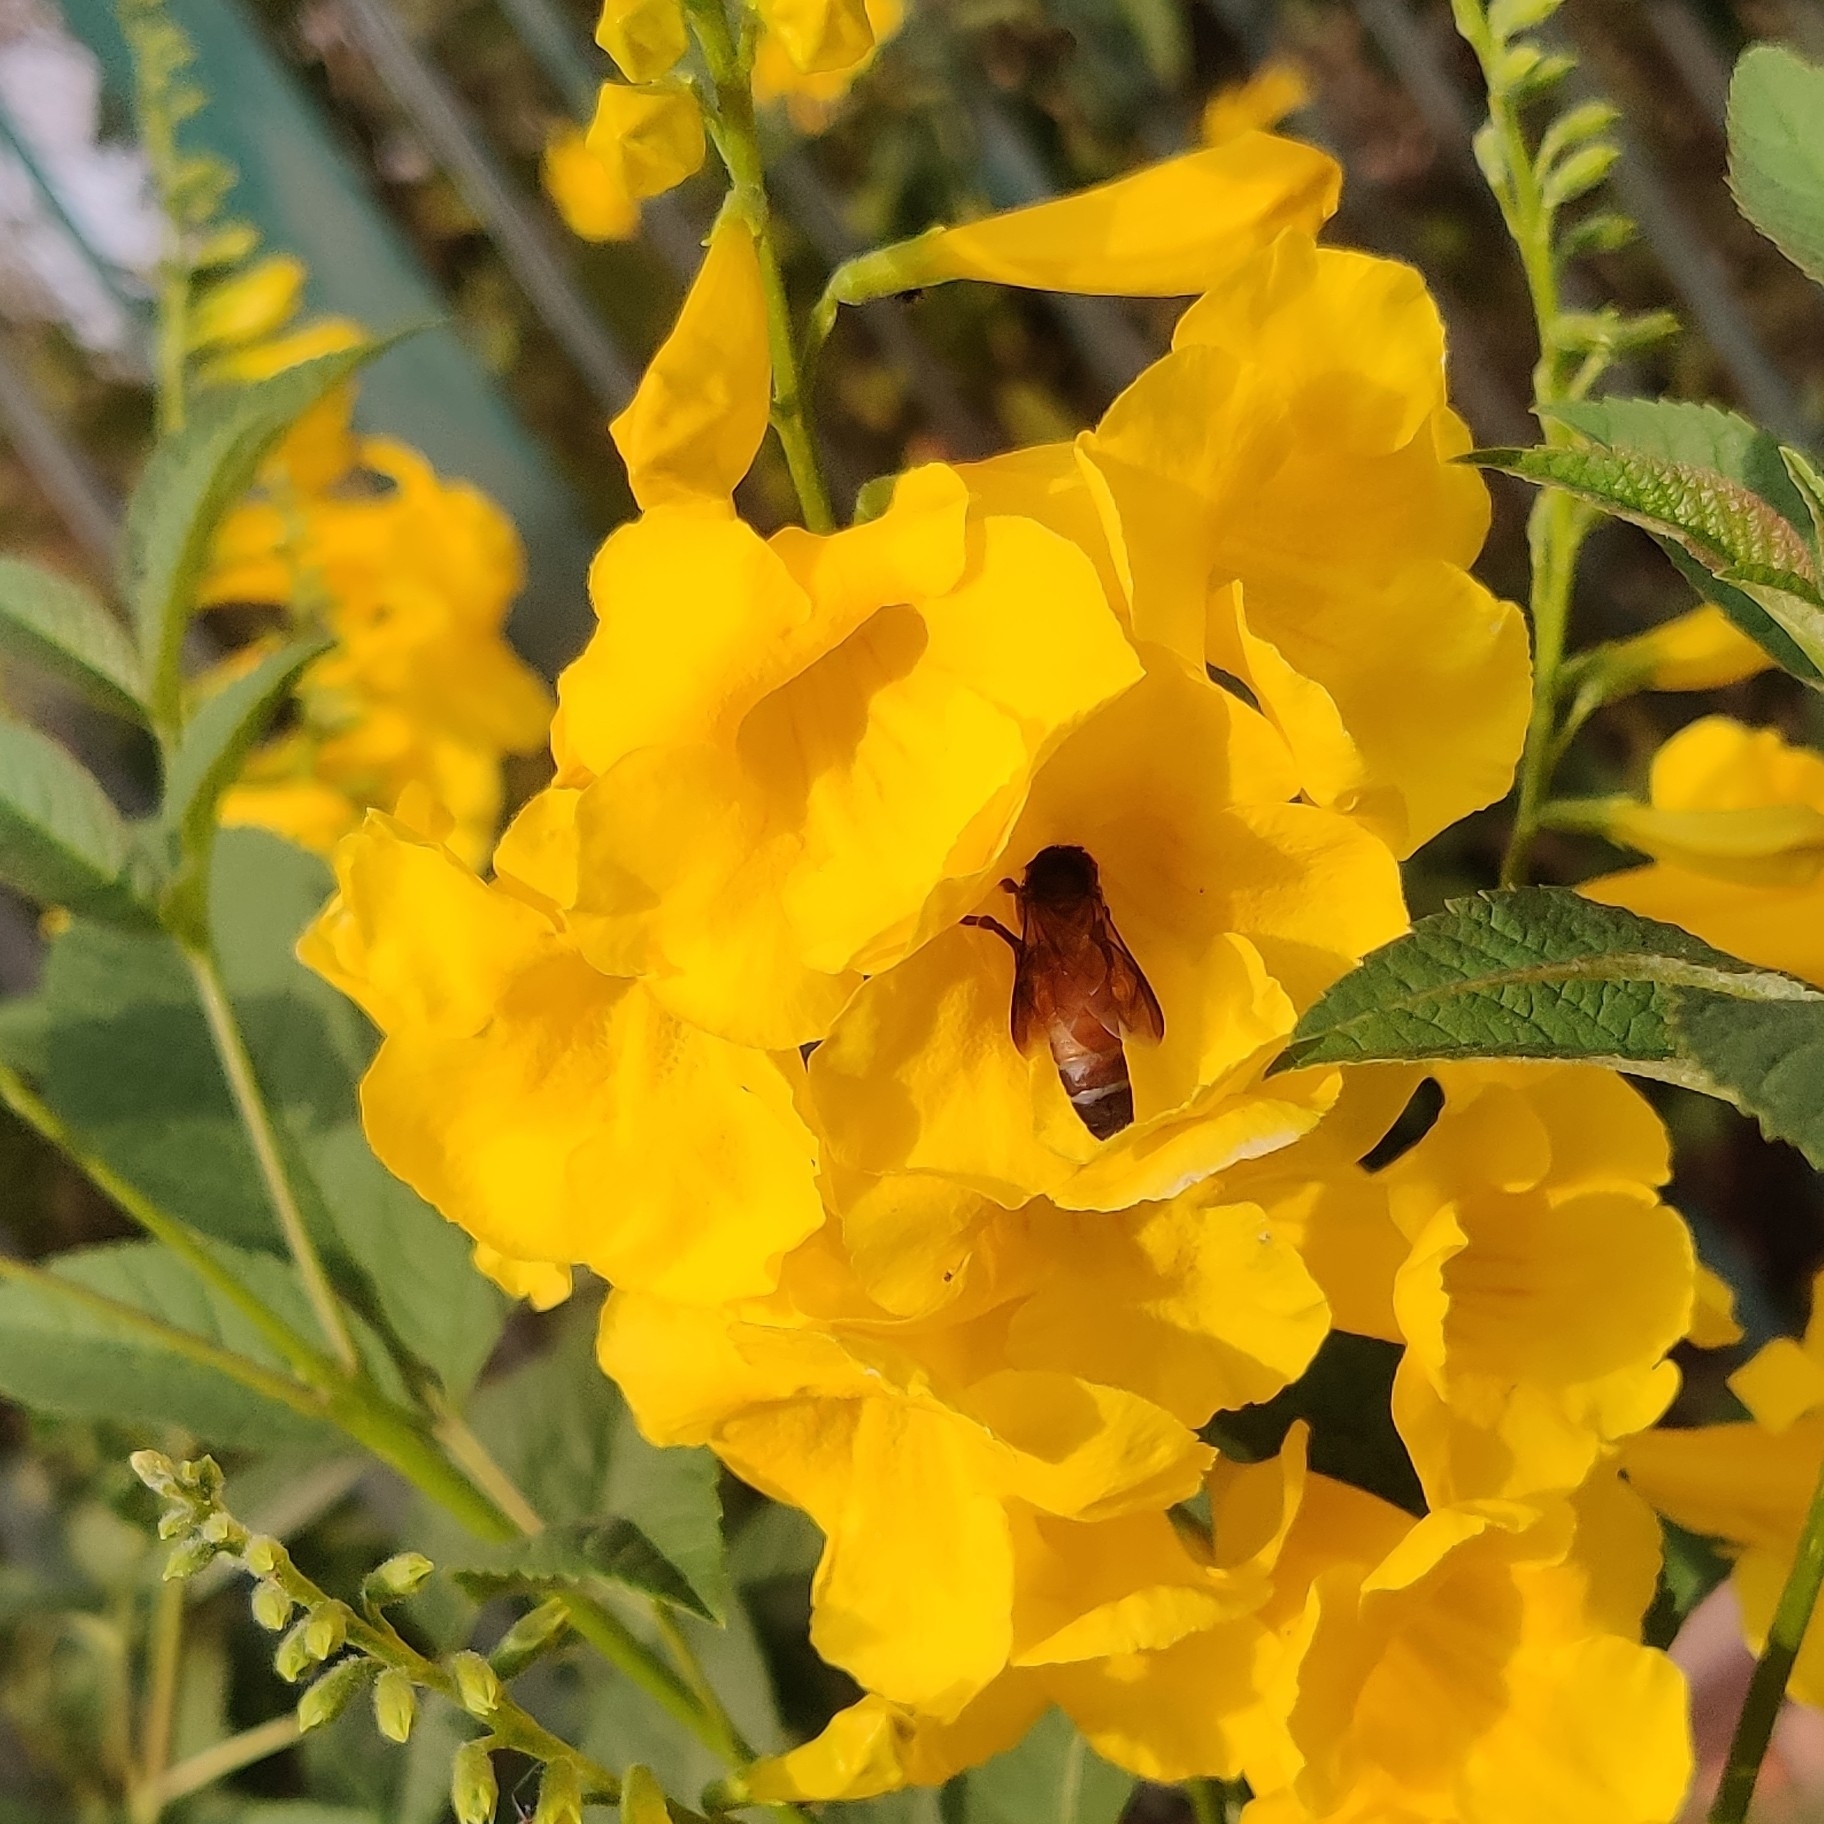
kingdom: Animalia
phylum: Arthropoda
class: Insecta
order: Hymenoptera
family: Apidae
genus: Apis
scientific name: Apis dorsata
